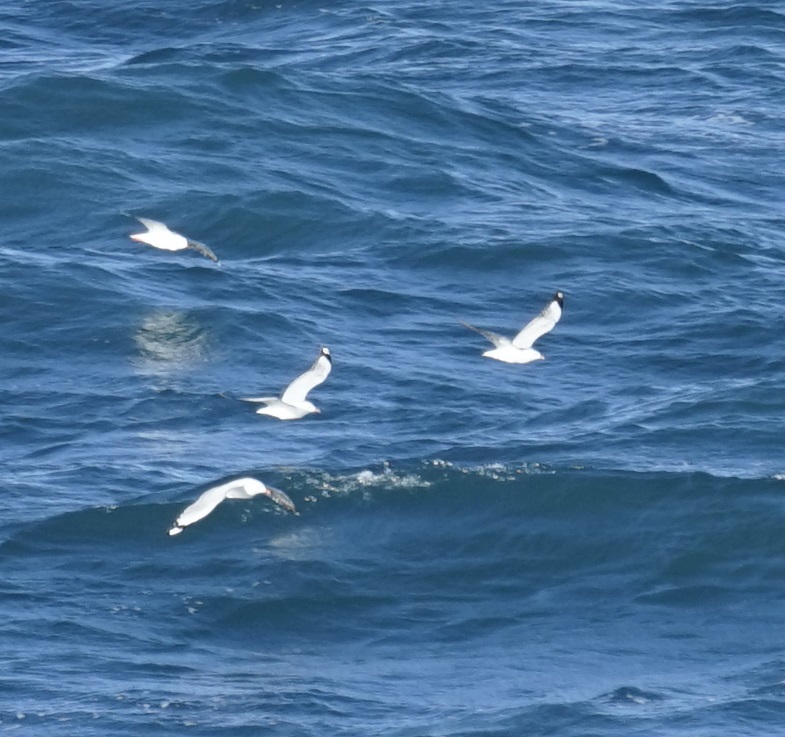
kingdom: Animalia
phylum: Chordata
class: Aves
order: Charadriiformes
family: Laridae
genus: Chroicocephalus
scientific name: Chroicocephalus novaehollandiae
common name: Silver gull
